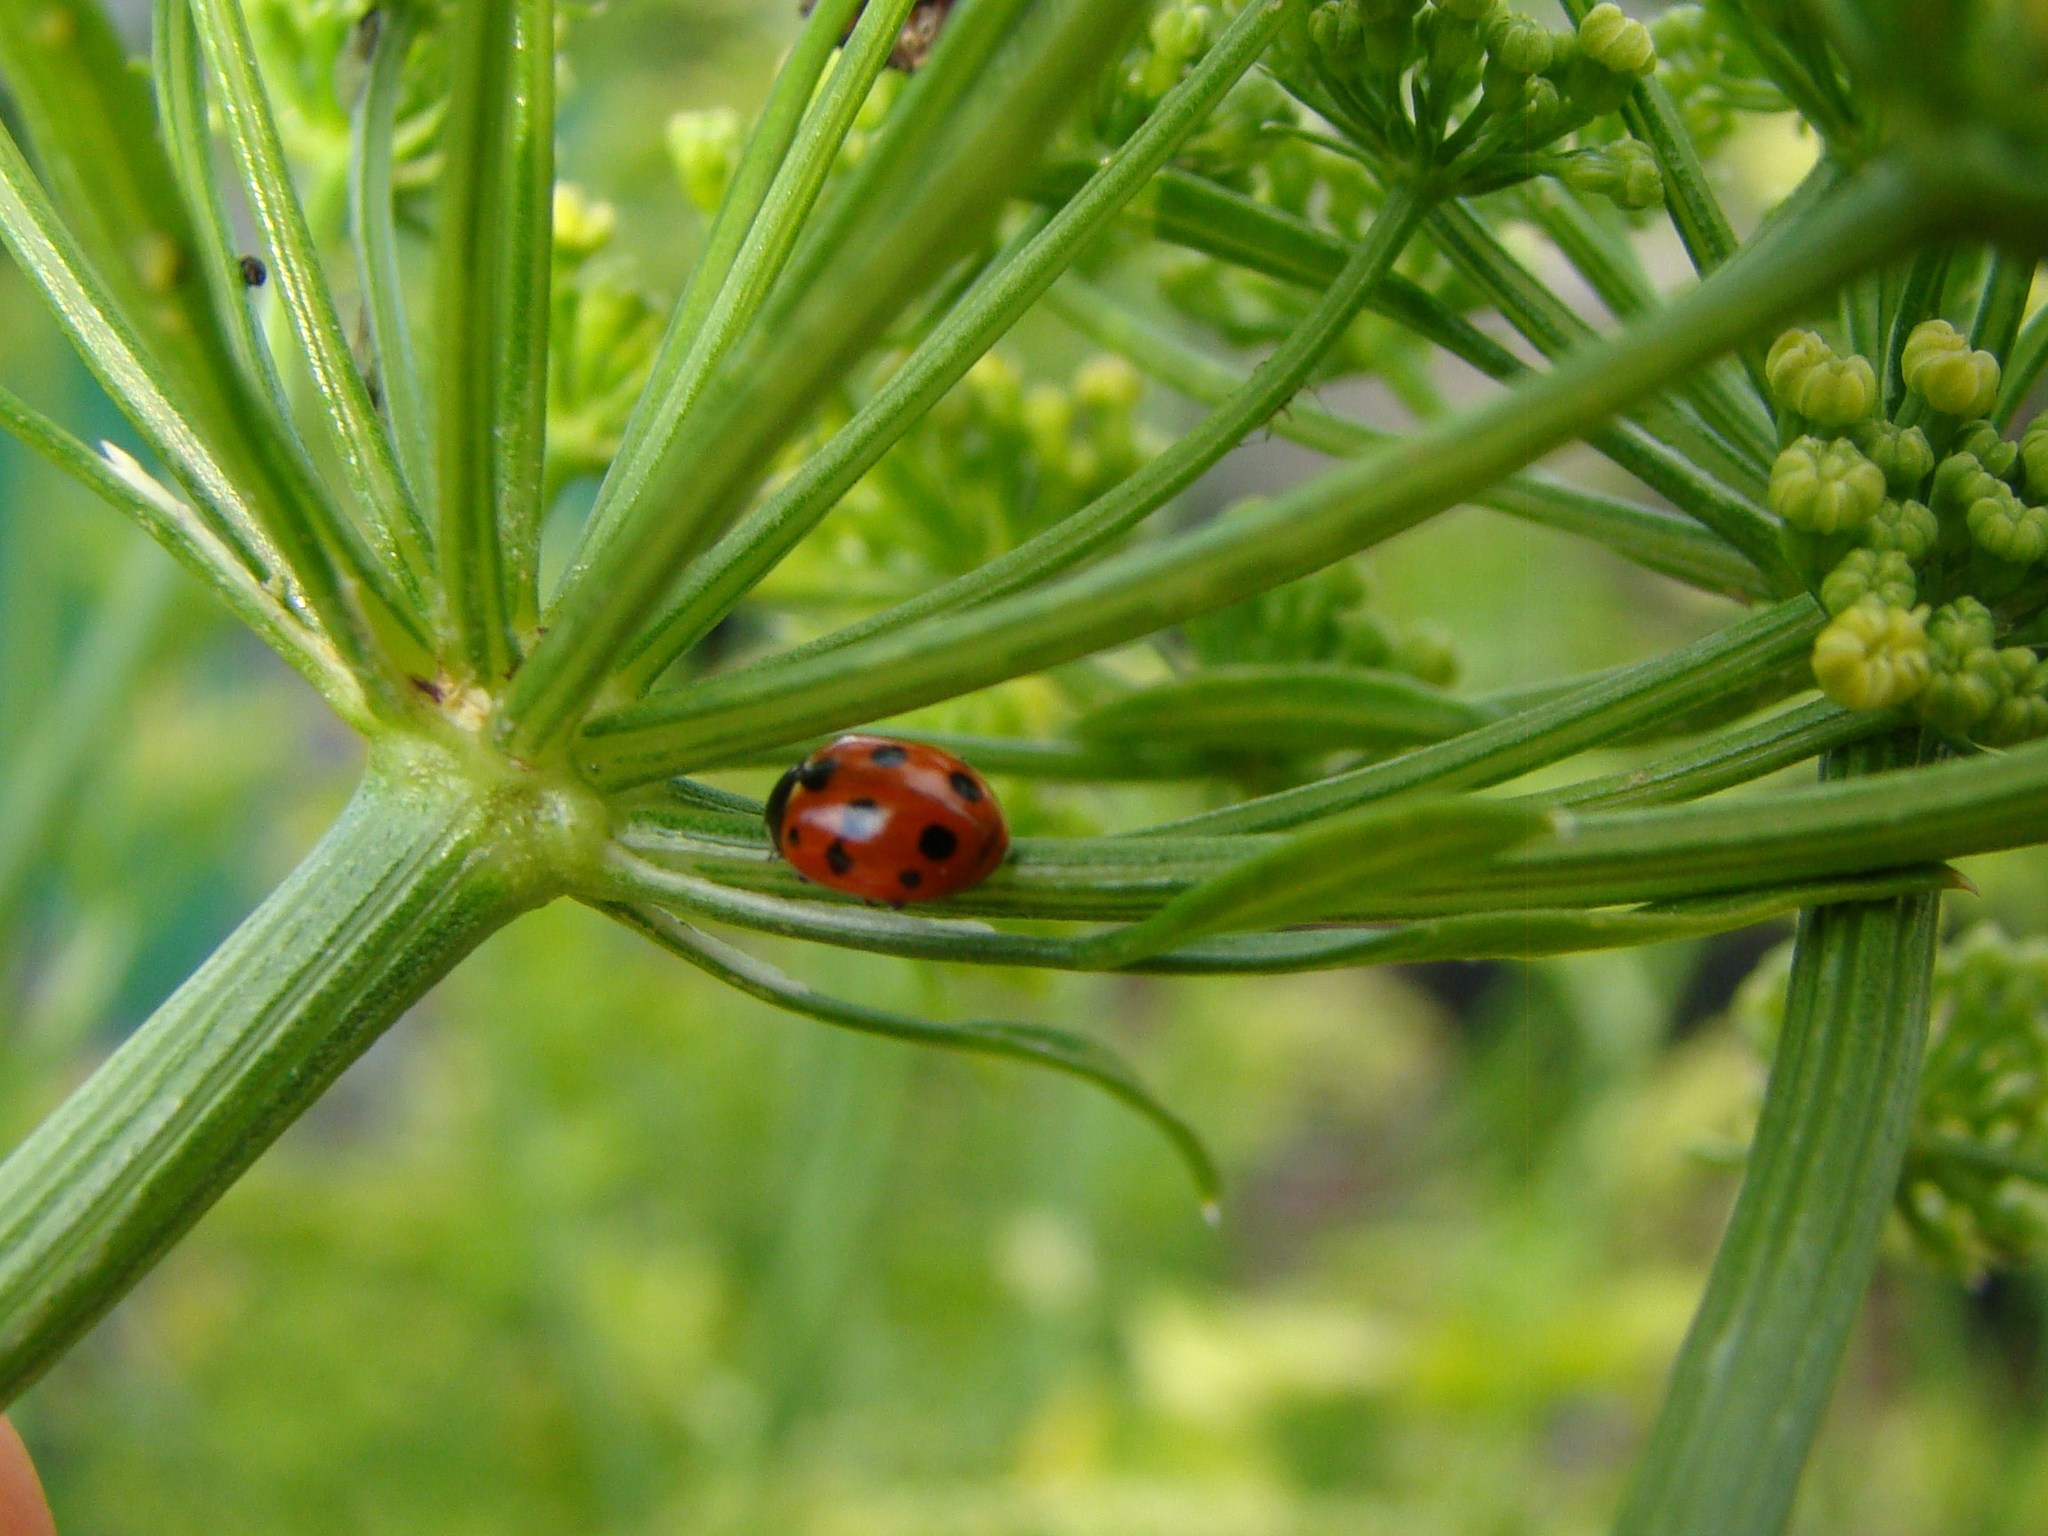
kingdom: Animalia
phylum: Arthropoda
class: Insecta
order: Coleoptera
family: Coccinellidae
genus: Coccinella
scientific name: Coccinella undecimpunctata
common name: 11-spot ladybird
